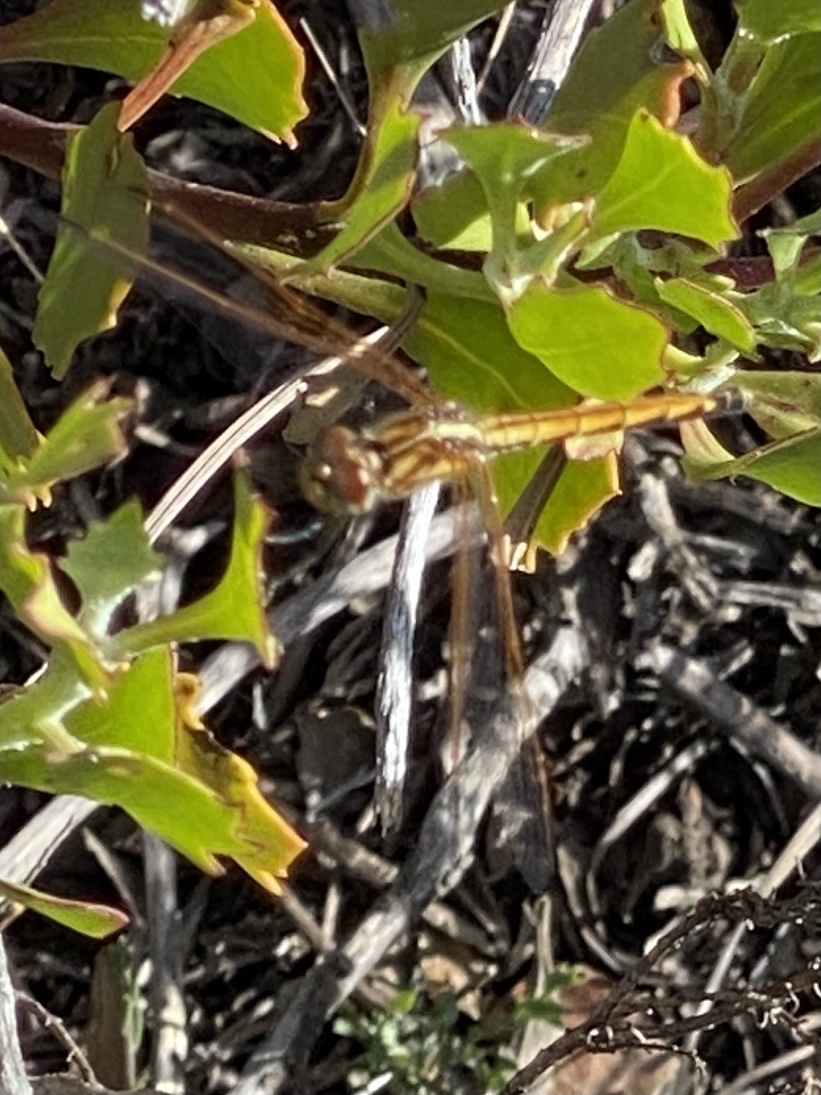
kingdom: Animalia
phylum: Arthropoda
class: Insecta
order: Odonata
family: Libellulidae
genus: Trithemis
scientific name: Trithemis arteriosa
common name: Red-veined dropwing
